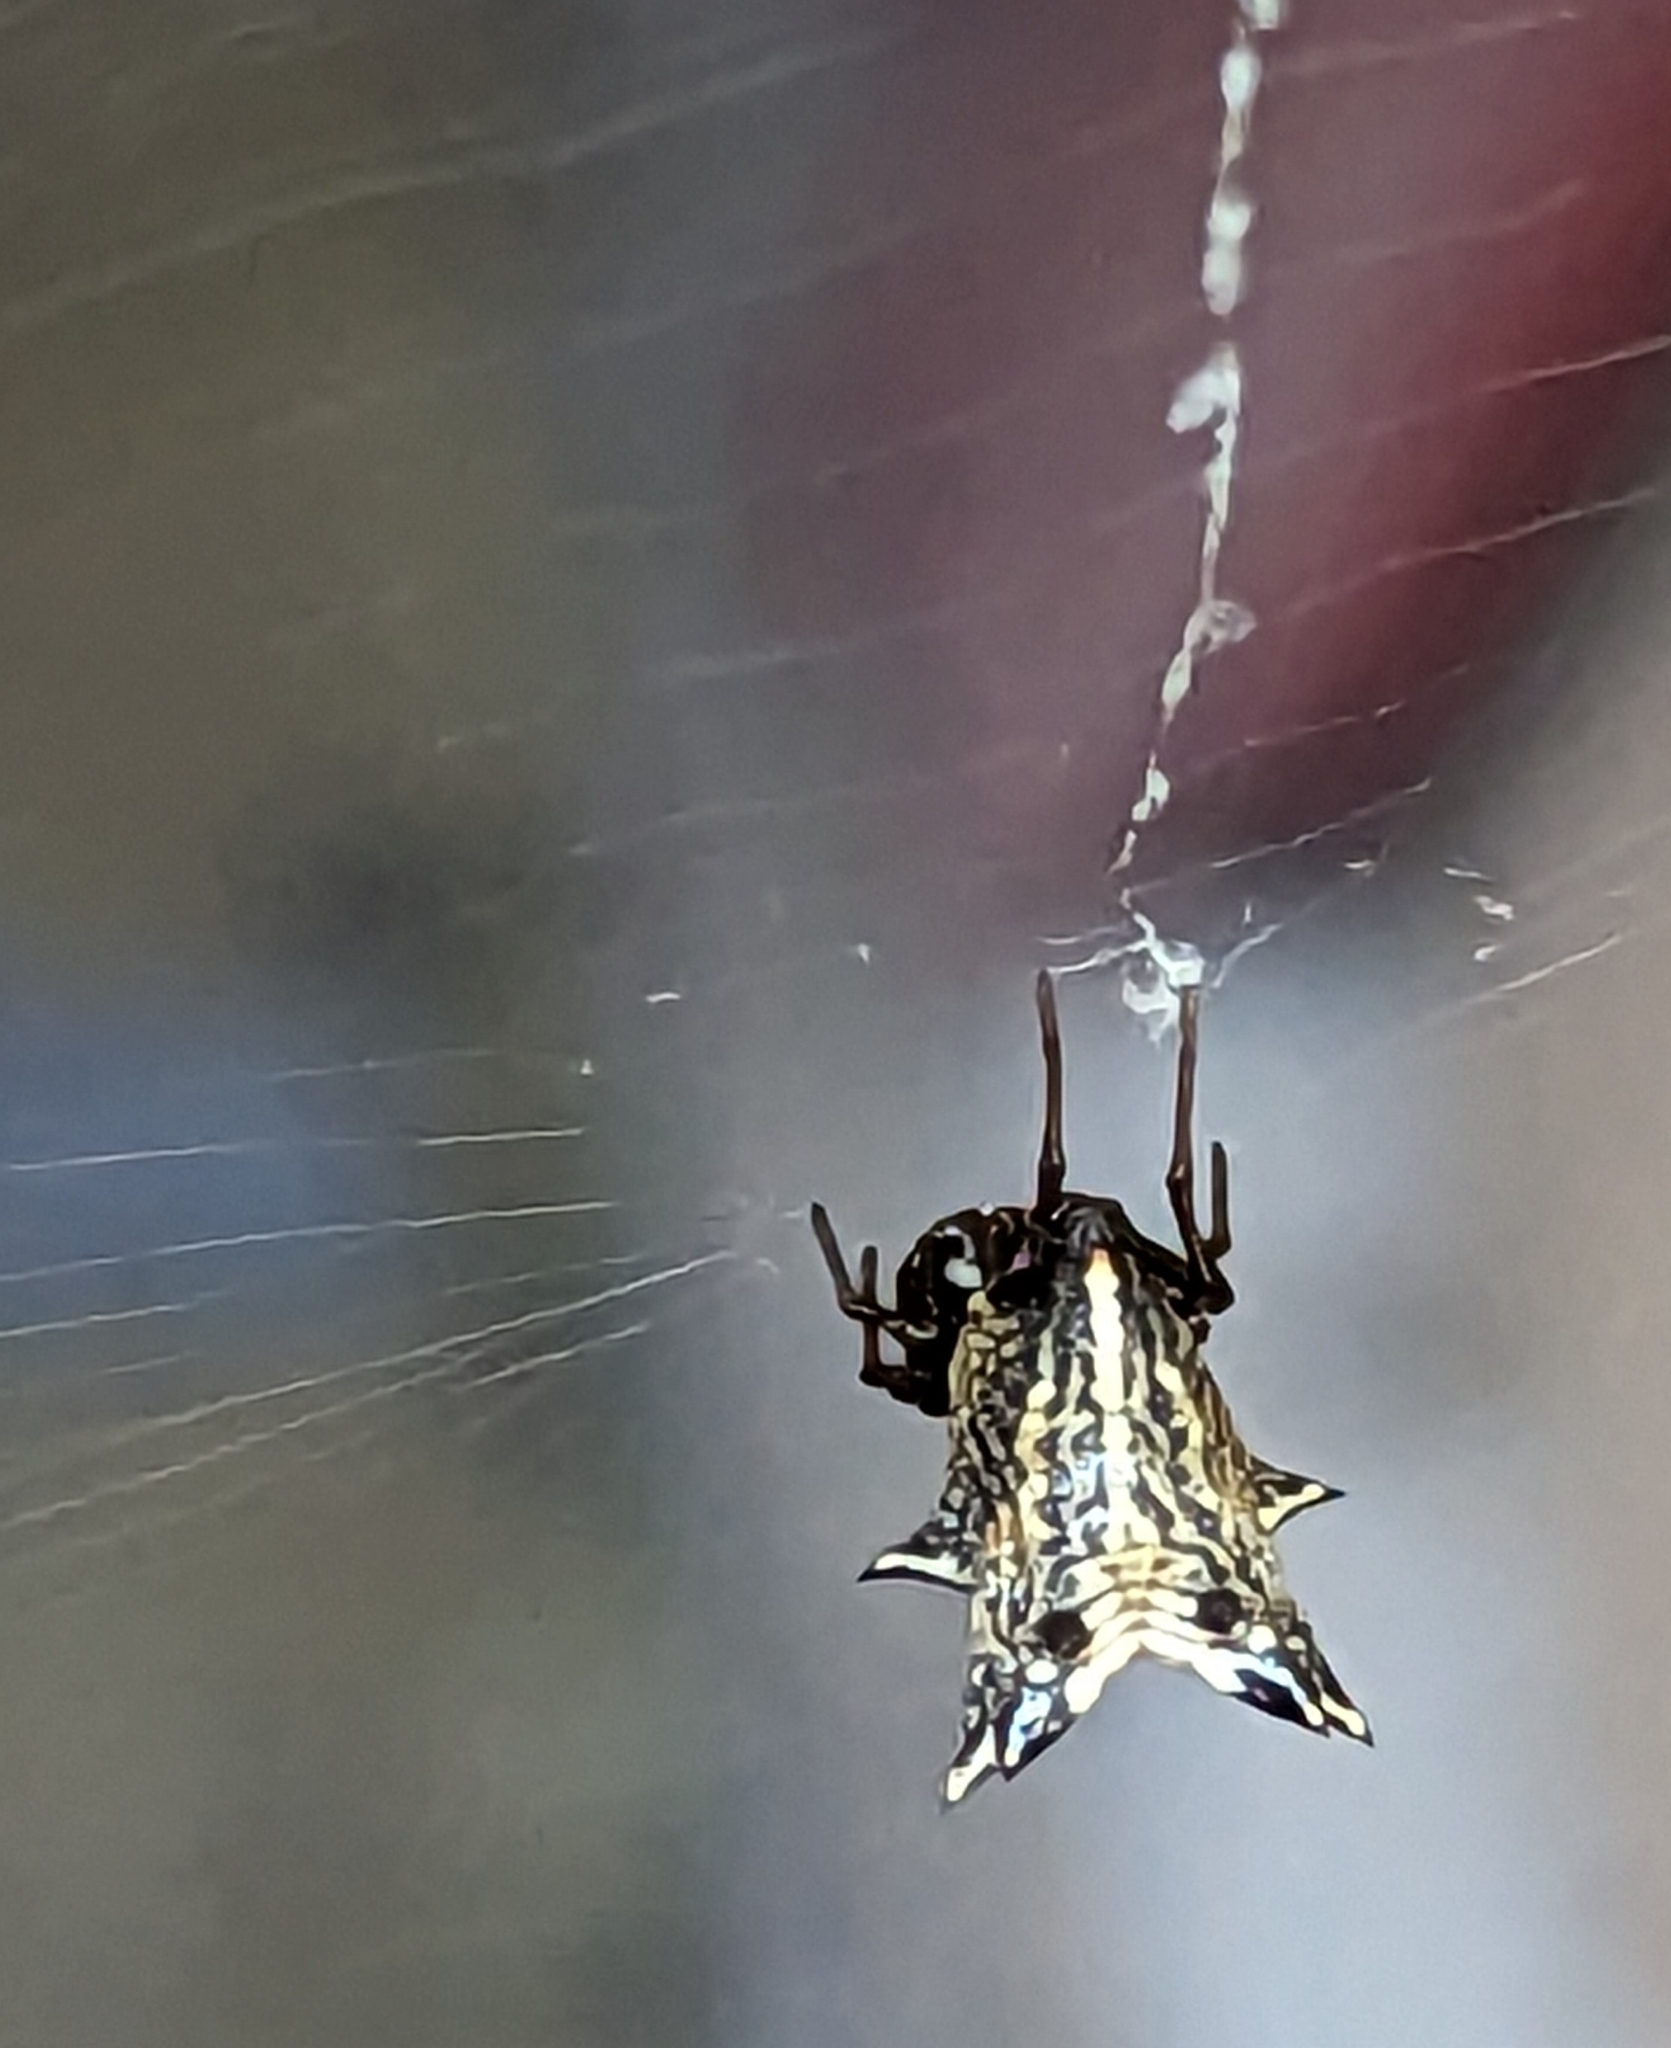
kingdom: Animalia
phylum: Arthropoda
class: Arachnida
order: Araneae
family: Araneidae
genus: Micrathena
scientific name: Micrathena gracilis
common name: Orb weavers
